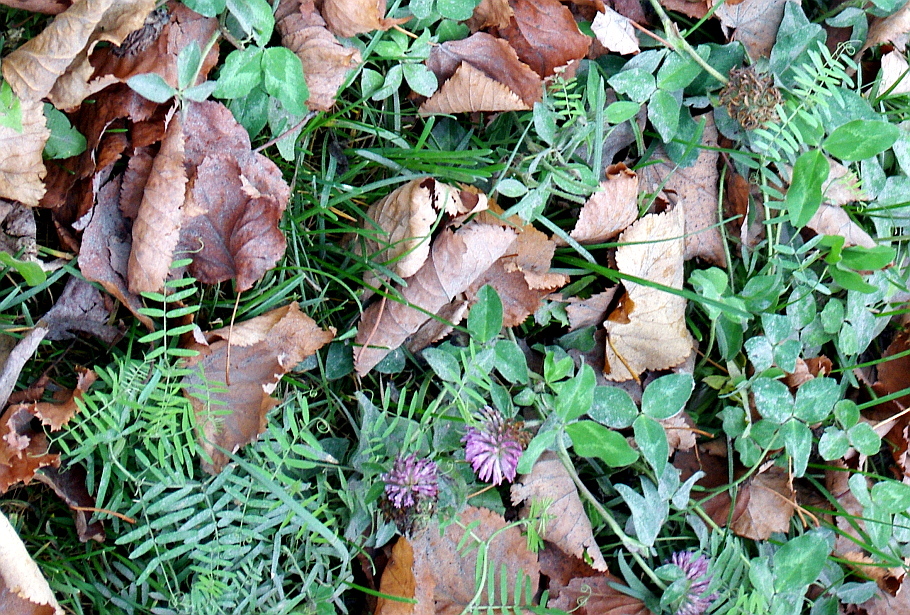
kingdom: Plantae
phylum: Tracheophyta
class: Magnoliopsida
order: Fabales
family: Fabaceae
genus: Vicia
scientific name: Vicia cracca
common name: Bird vetch
